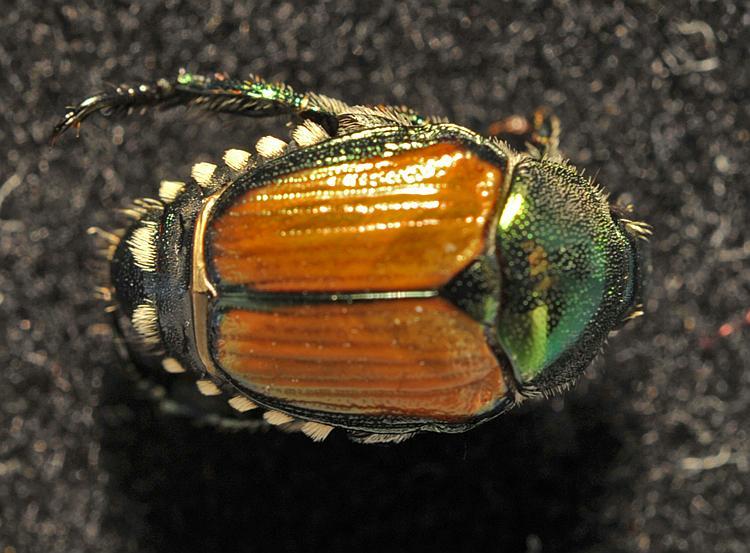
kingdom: Animalia
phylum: Arthropoda
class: Insecta
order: Coleoptera
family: Scarabaeidae
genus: Popillia
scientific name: Popillia japonica
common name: Japanese beetle
